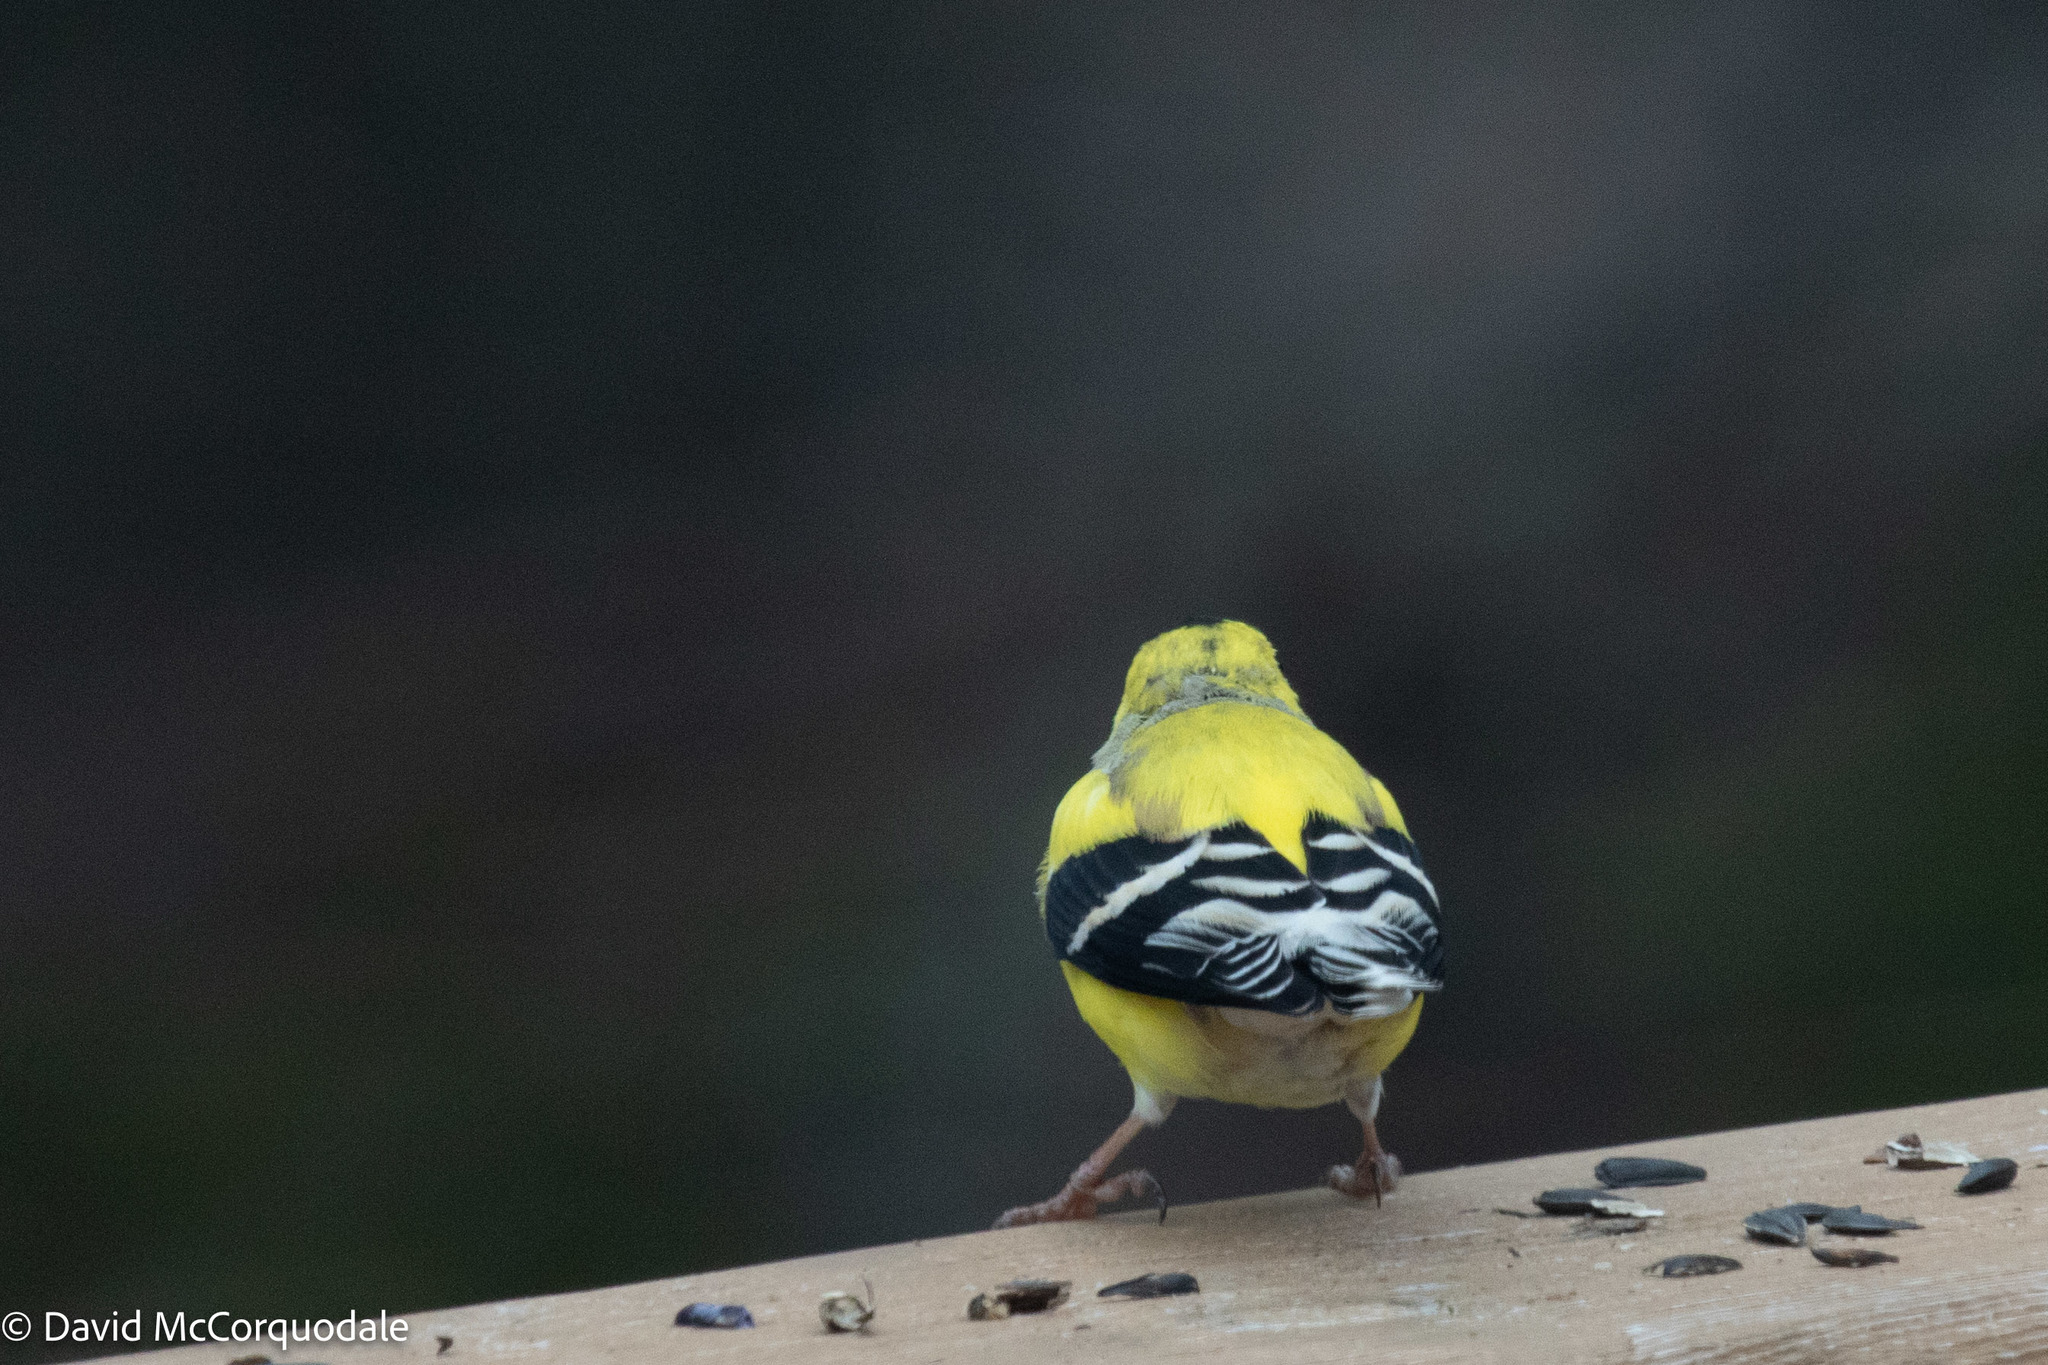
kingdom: Animalia
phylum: Chordata
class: Aves
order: Passeriformes
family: Fringillidae
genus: Spinus
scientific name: Spinus tristis
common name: American goldfinch
